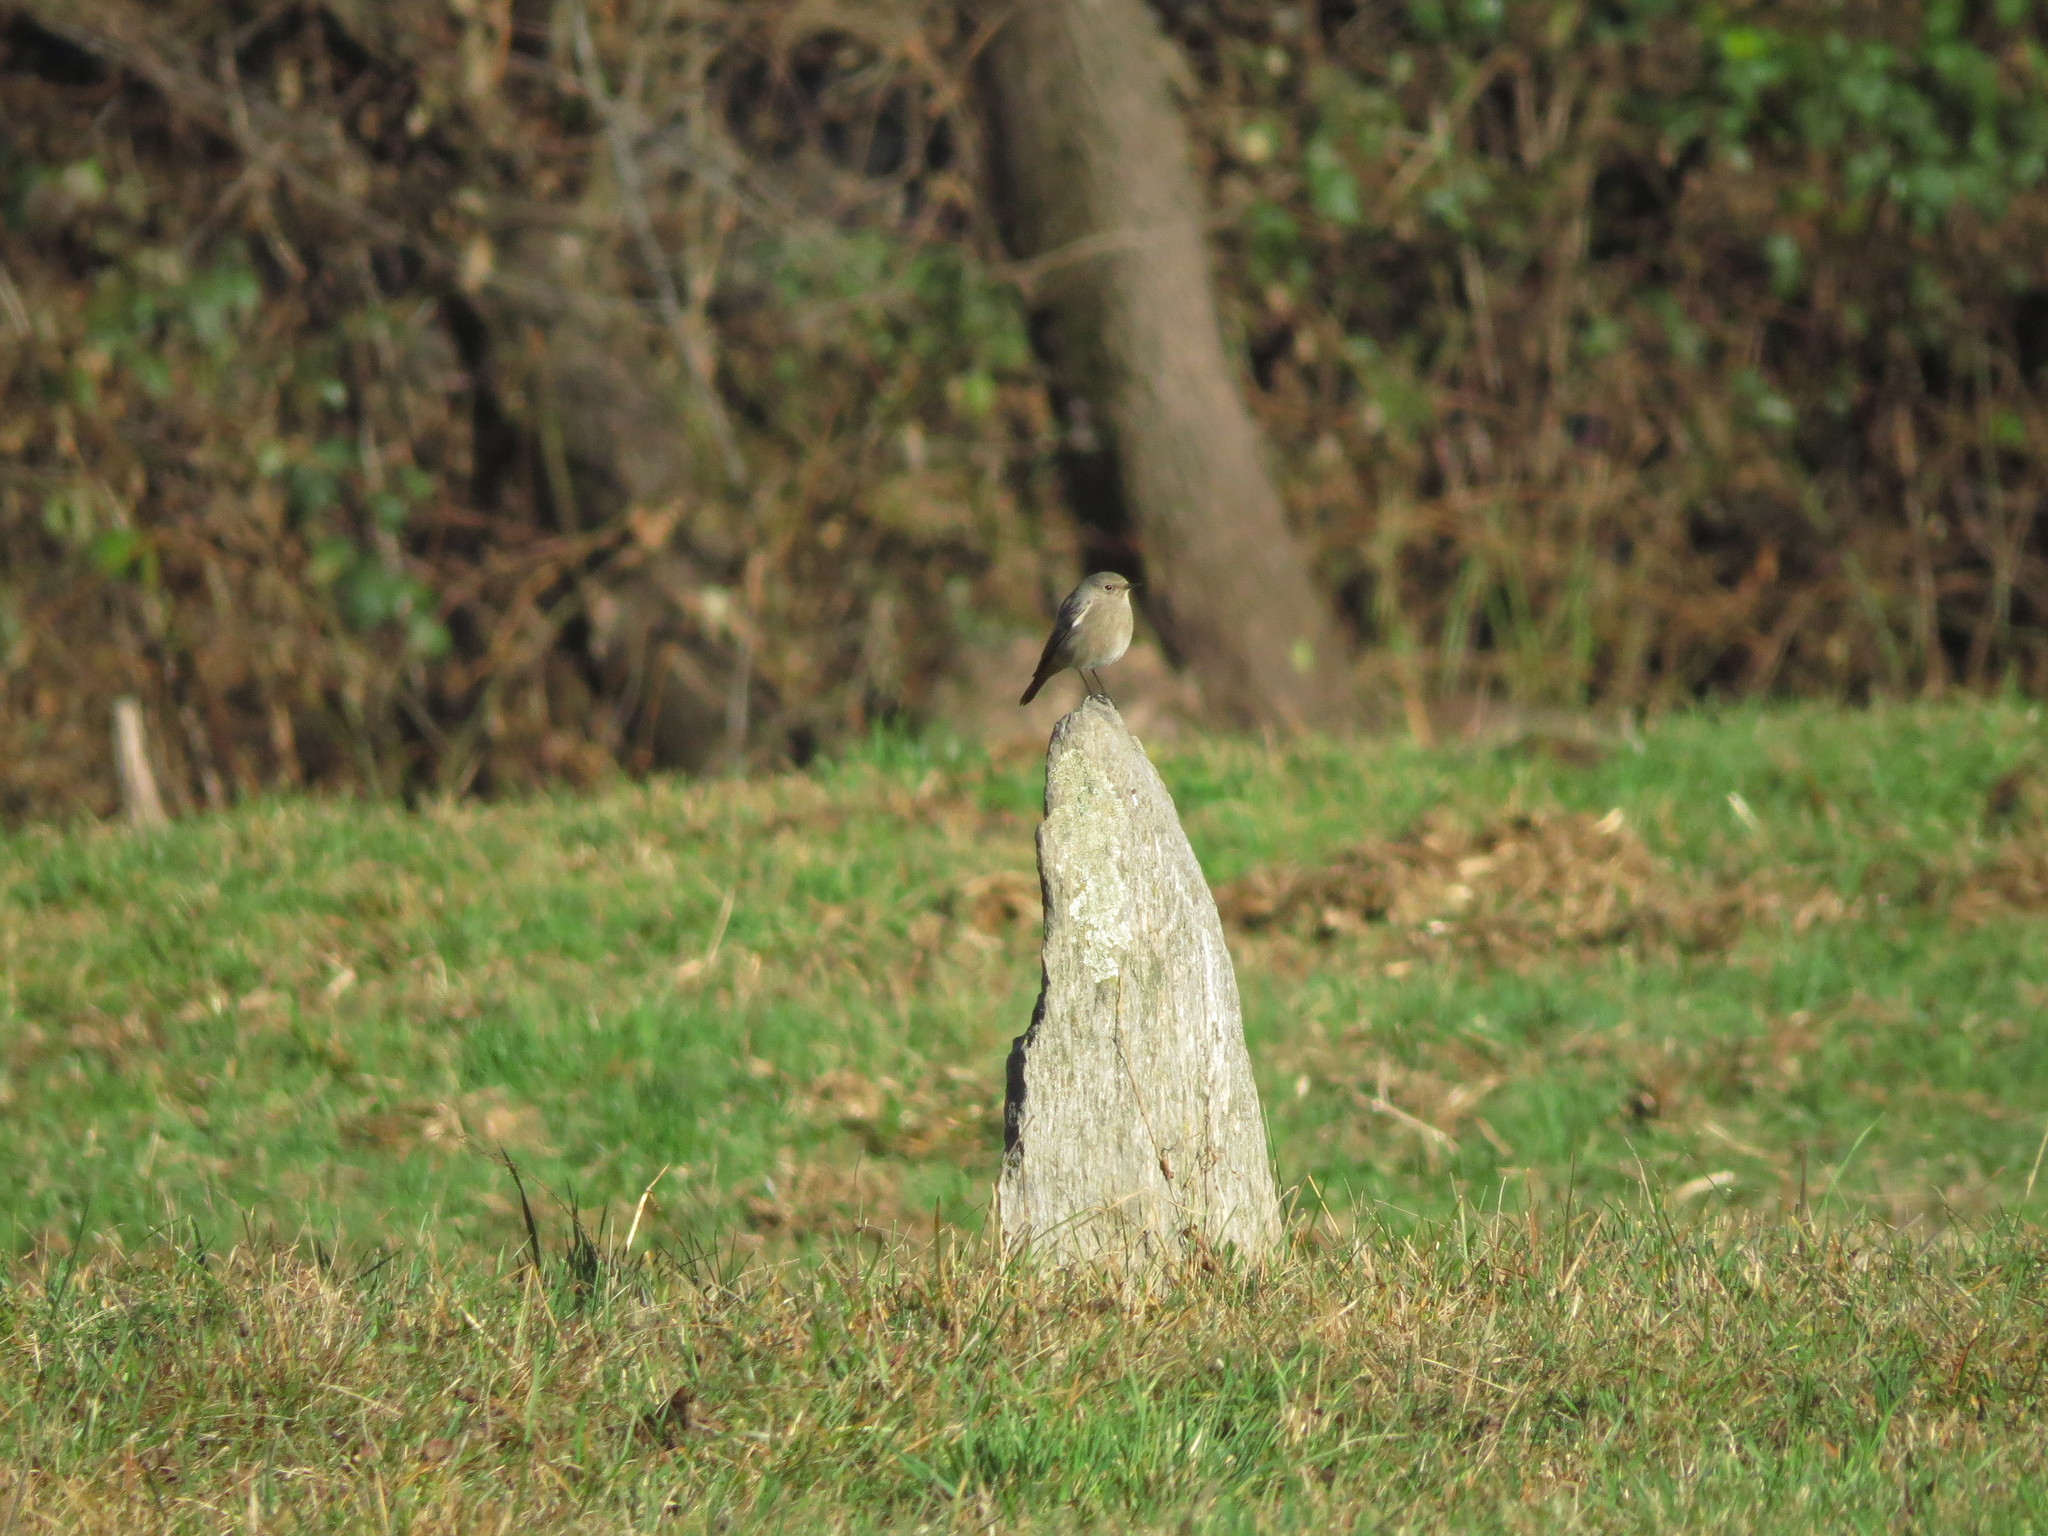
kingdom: Animalia
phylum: Chordata
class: Aves
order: Passeriformes
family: Muscicapidae
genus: Phoenicurus
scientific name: Phoenicurus ochruros
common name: Black redstart
